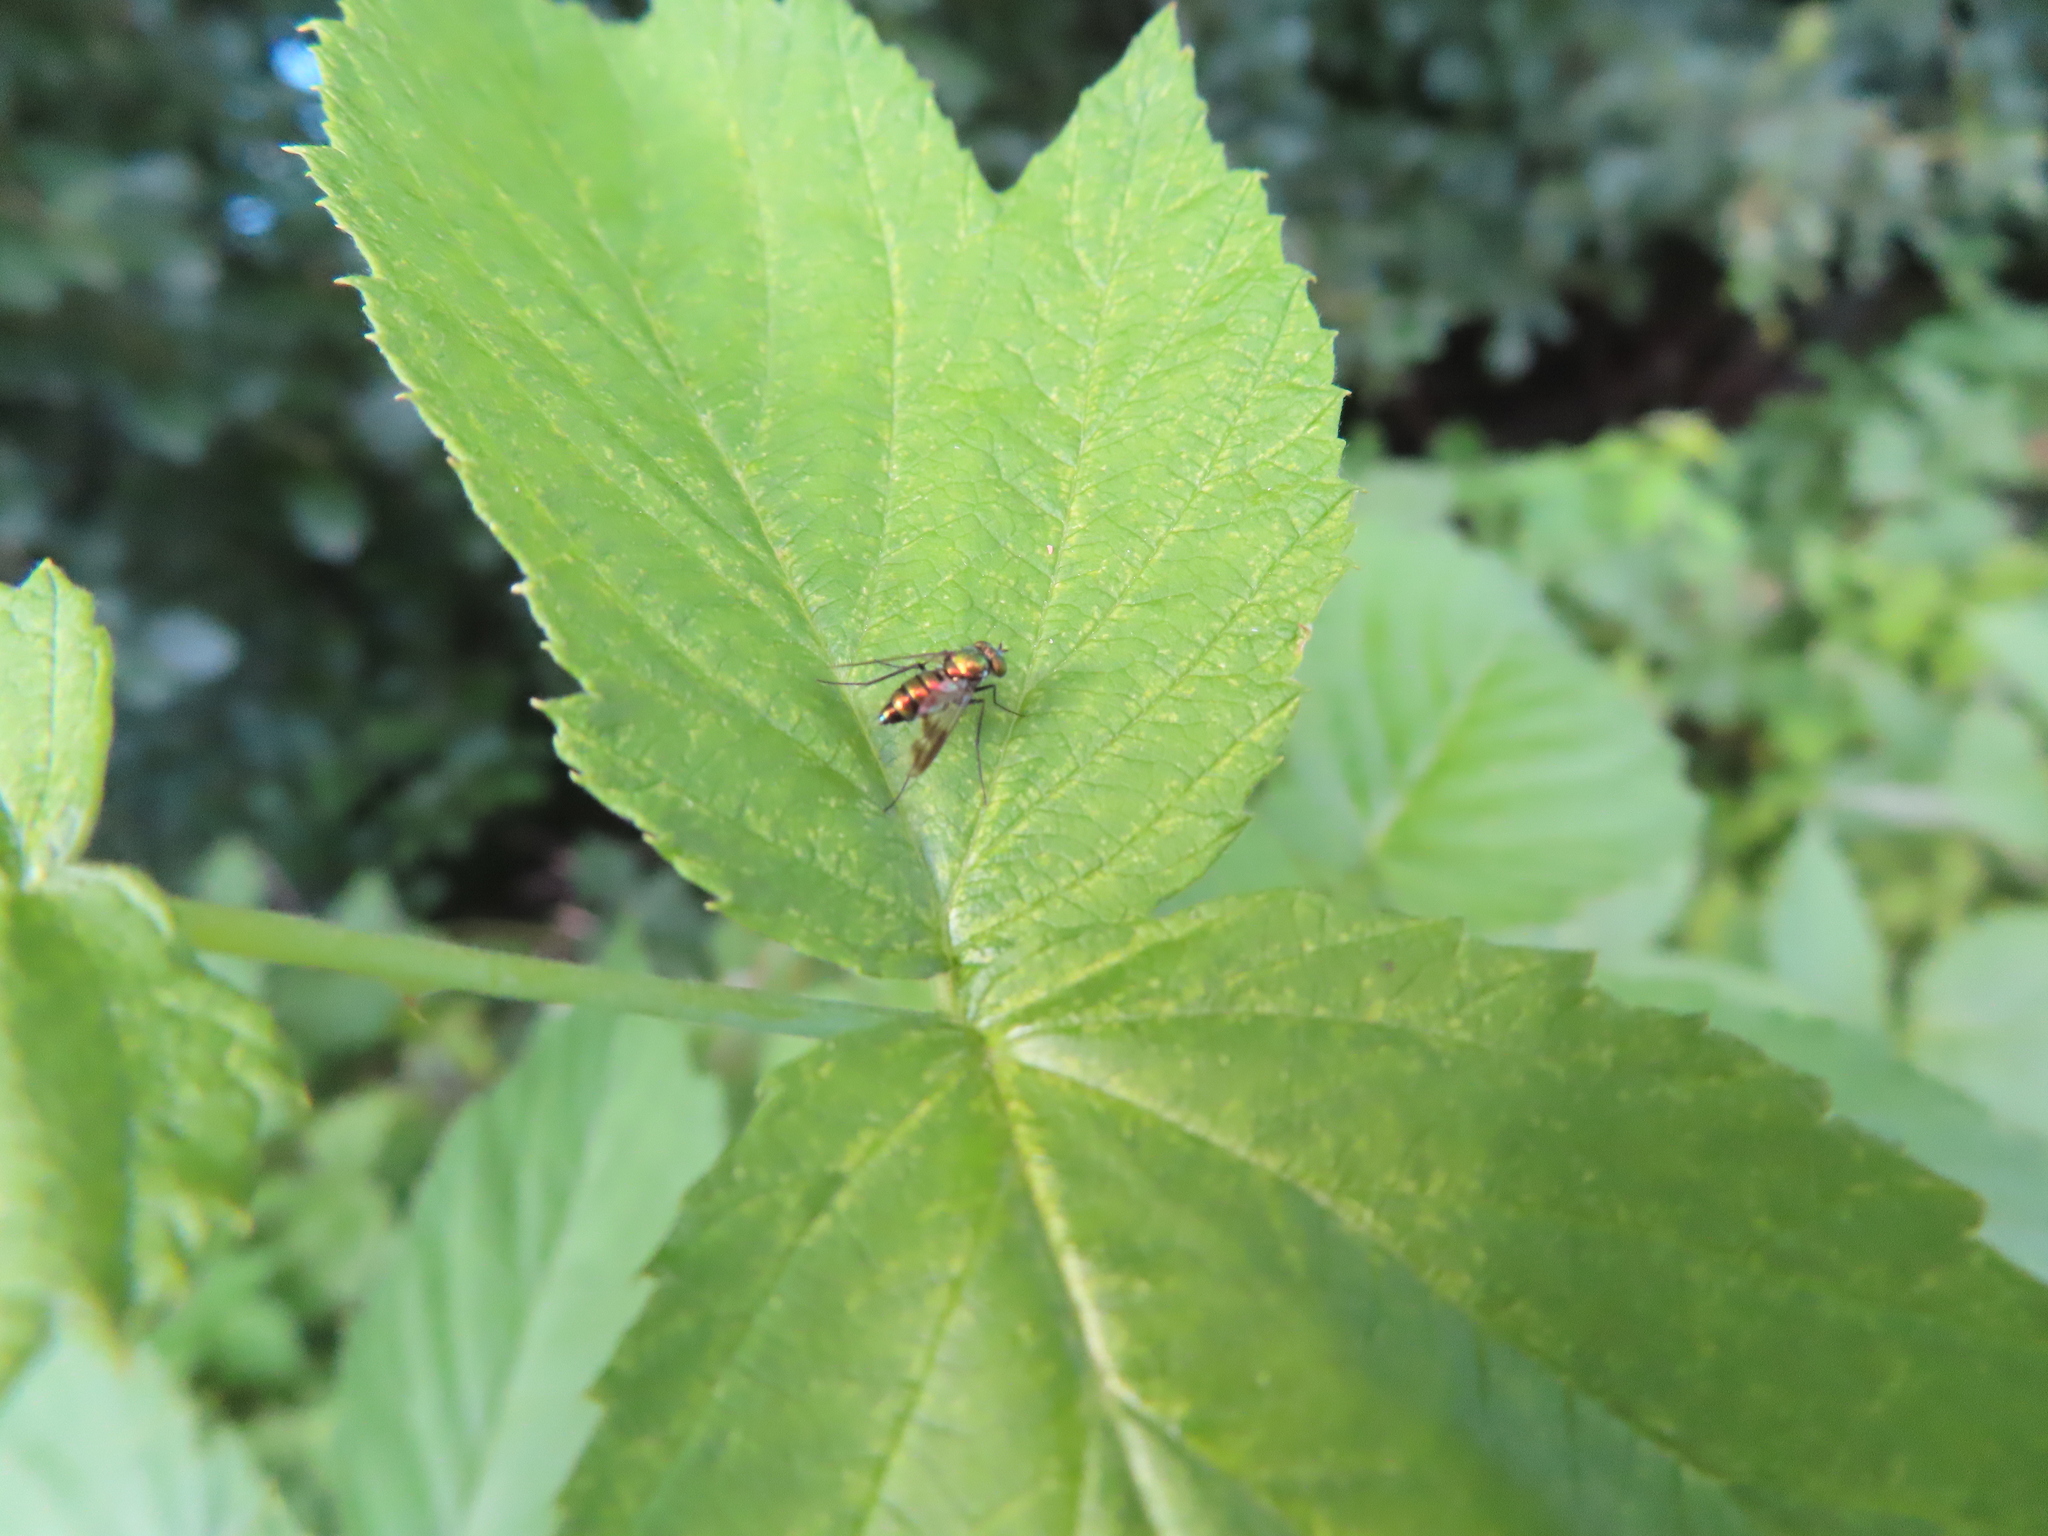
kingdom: Animalia
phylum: Arthropoda
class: Insecta
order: Diptera
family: Dolichopodidae
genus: Condylostylus
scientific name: Condylostylus patibulatus
